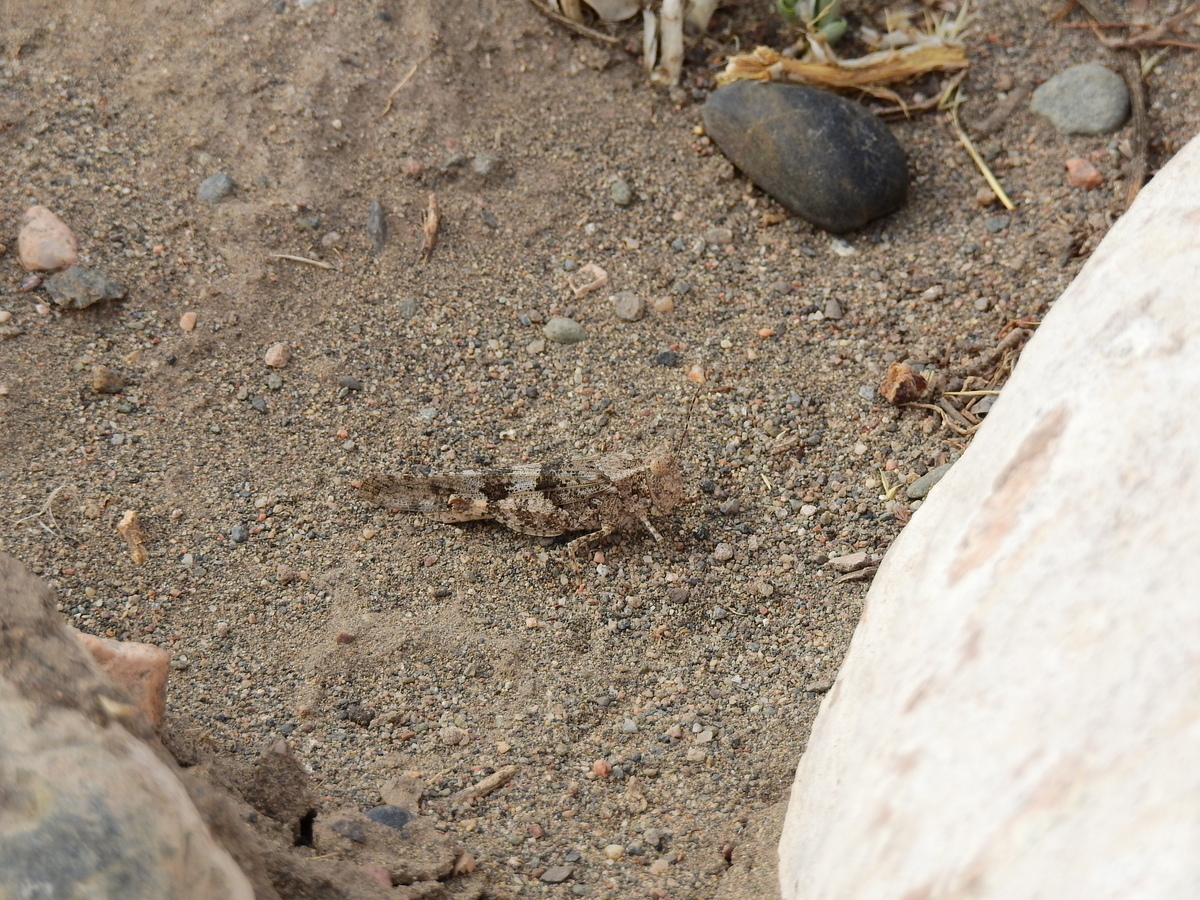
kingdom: Animalia
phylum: Arthropoda
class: Insecta
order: Orthoptera
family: Acrididae
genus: Trimerotropis
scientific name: Trimerotropis pallidipennis
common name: Pallid-winged grasshopper
